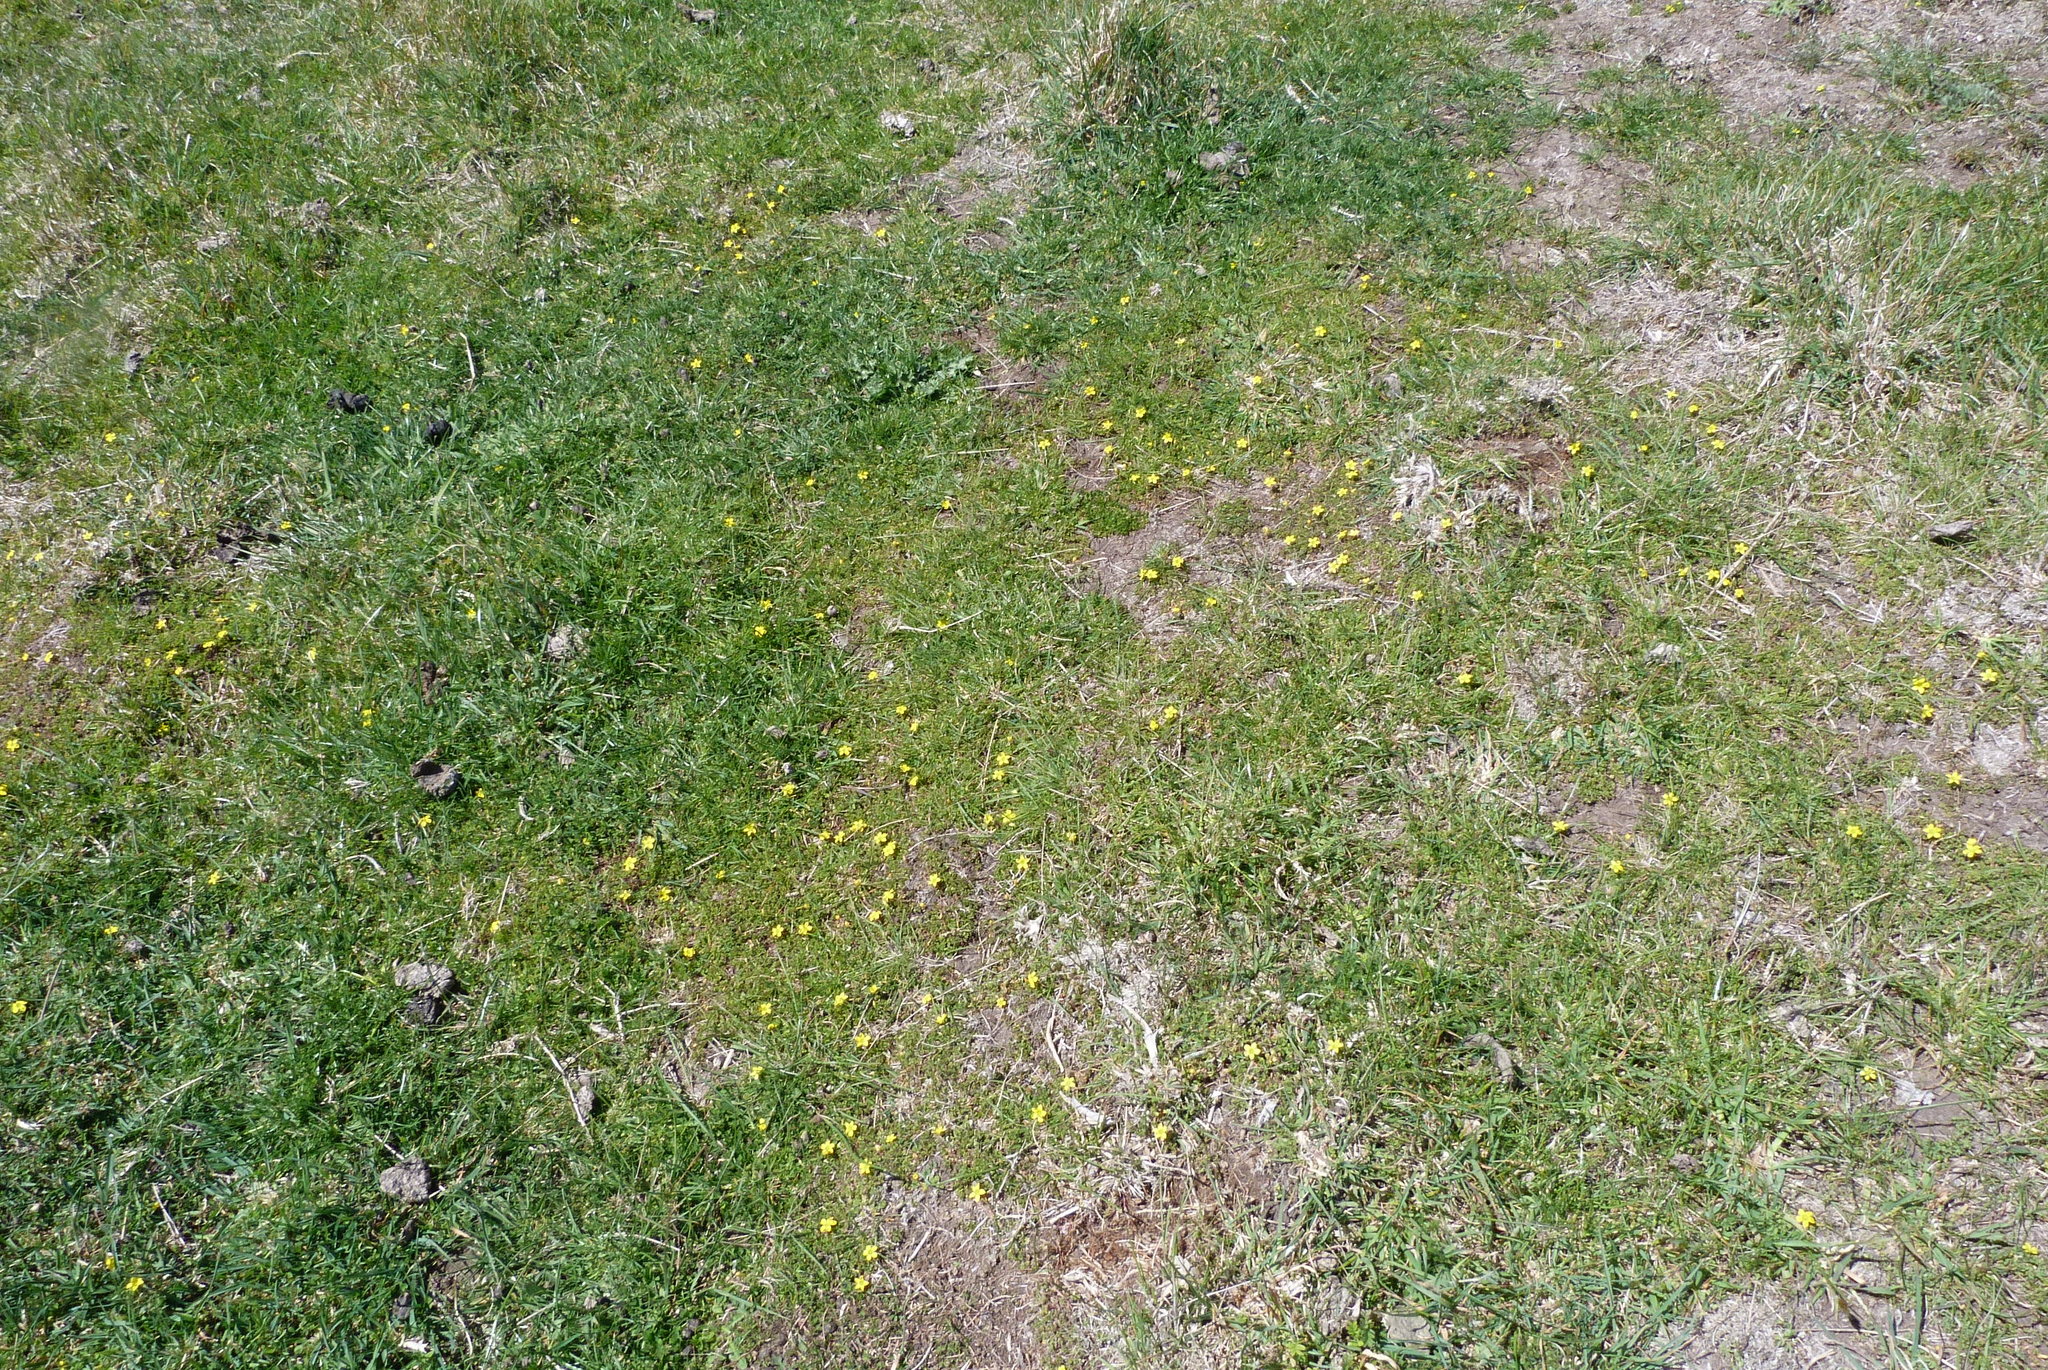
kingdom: Plantae
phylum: Tracheophyta
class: Magnoliopsida
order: Oxalidales
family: Oxalidaceae
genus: Oxalis
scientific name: Oxalis exilis
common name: Least yellow-sorrel
